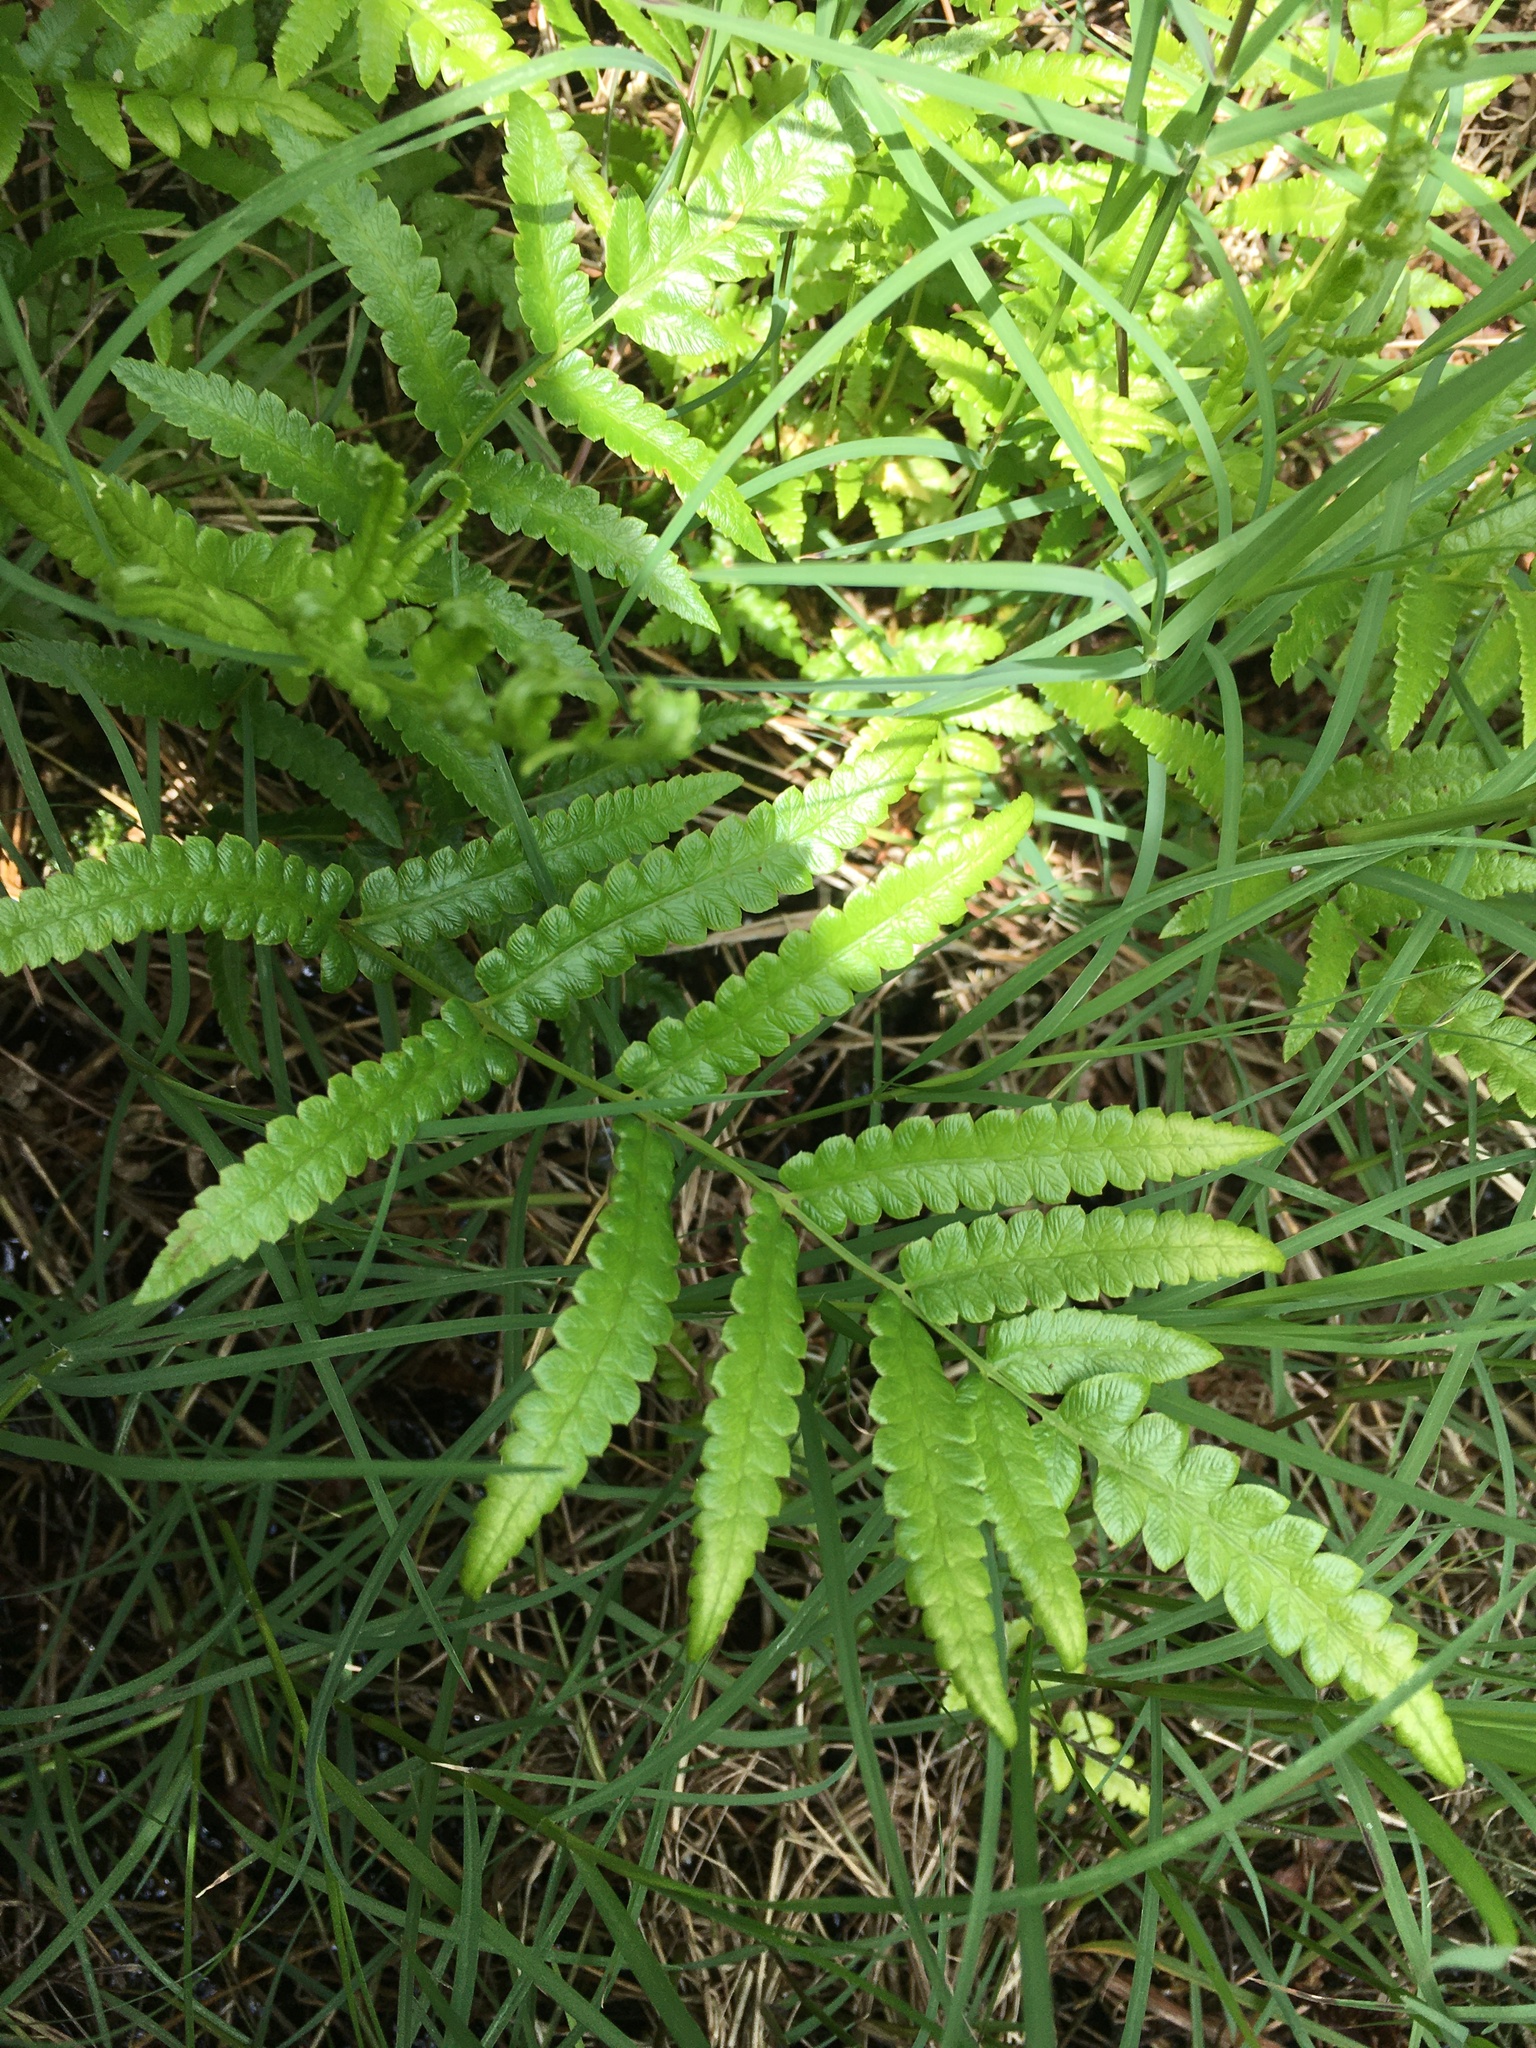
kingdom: Plantae
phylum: Tracheophyta
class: Polypodiopsida
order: Polypodiales
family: Thelypteridaceae
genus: Cyclosorus
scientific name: Cyclosorus interruptus
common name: Neke fern
